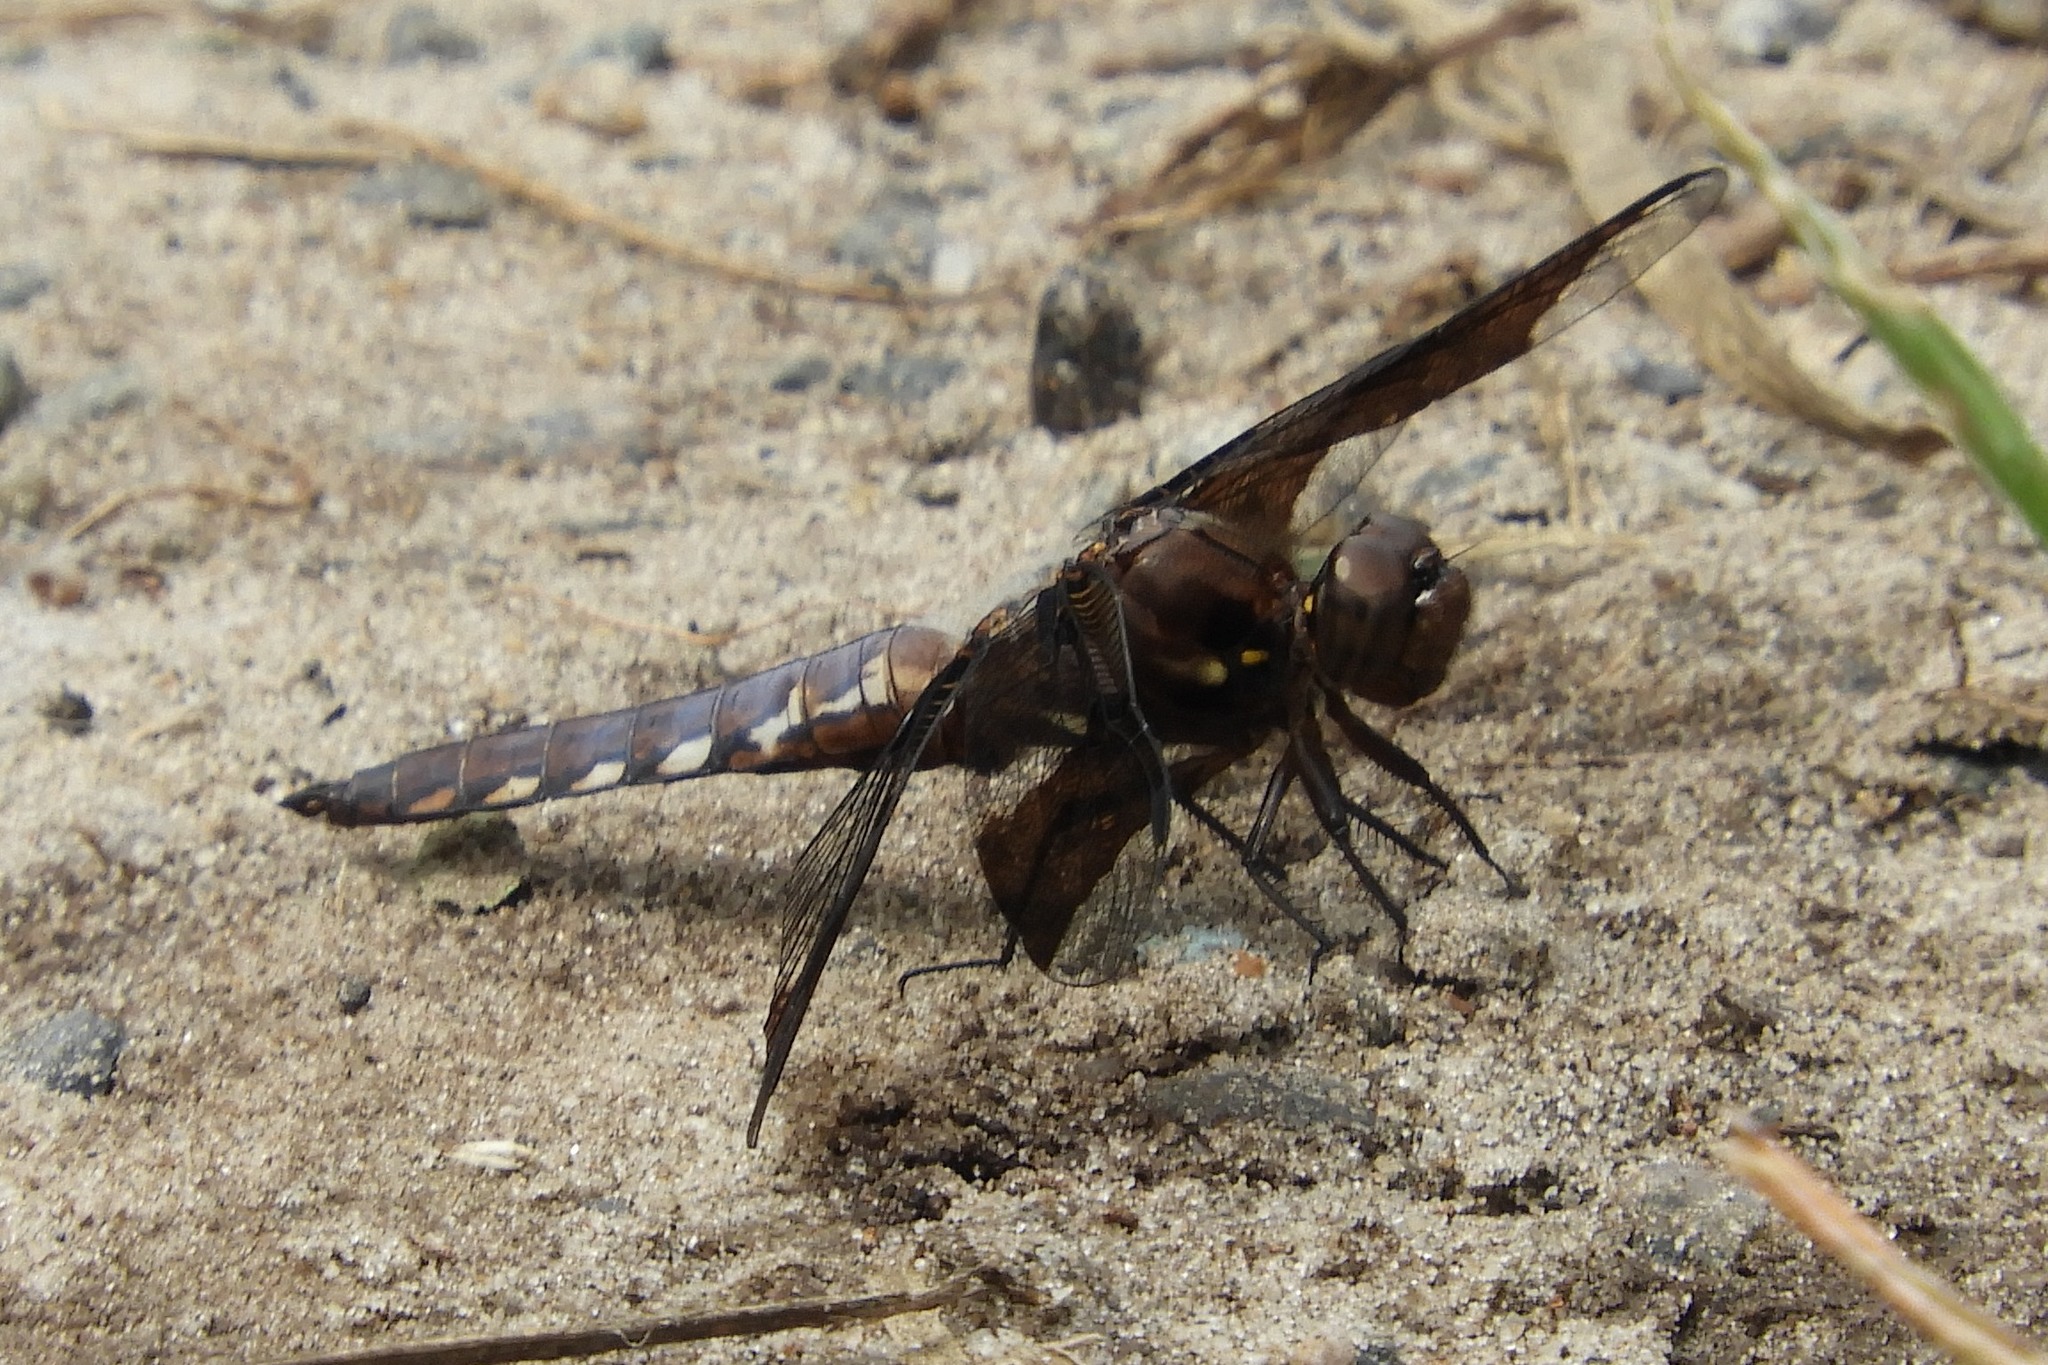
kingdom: Animalia
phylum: Arthropoda
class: Insecta
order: Odonata
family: Libellulidae
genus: Plathemis
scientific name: Plathemis lydia
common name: Common whitetail
